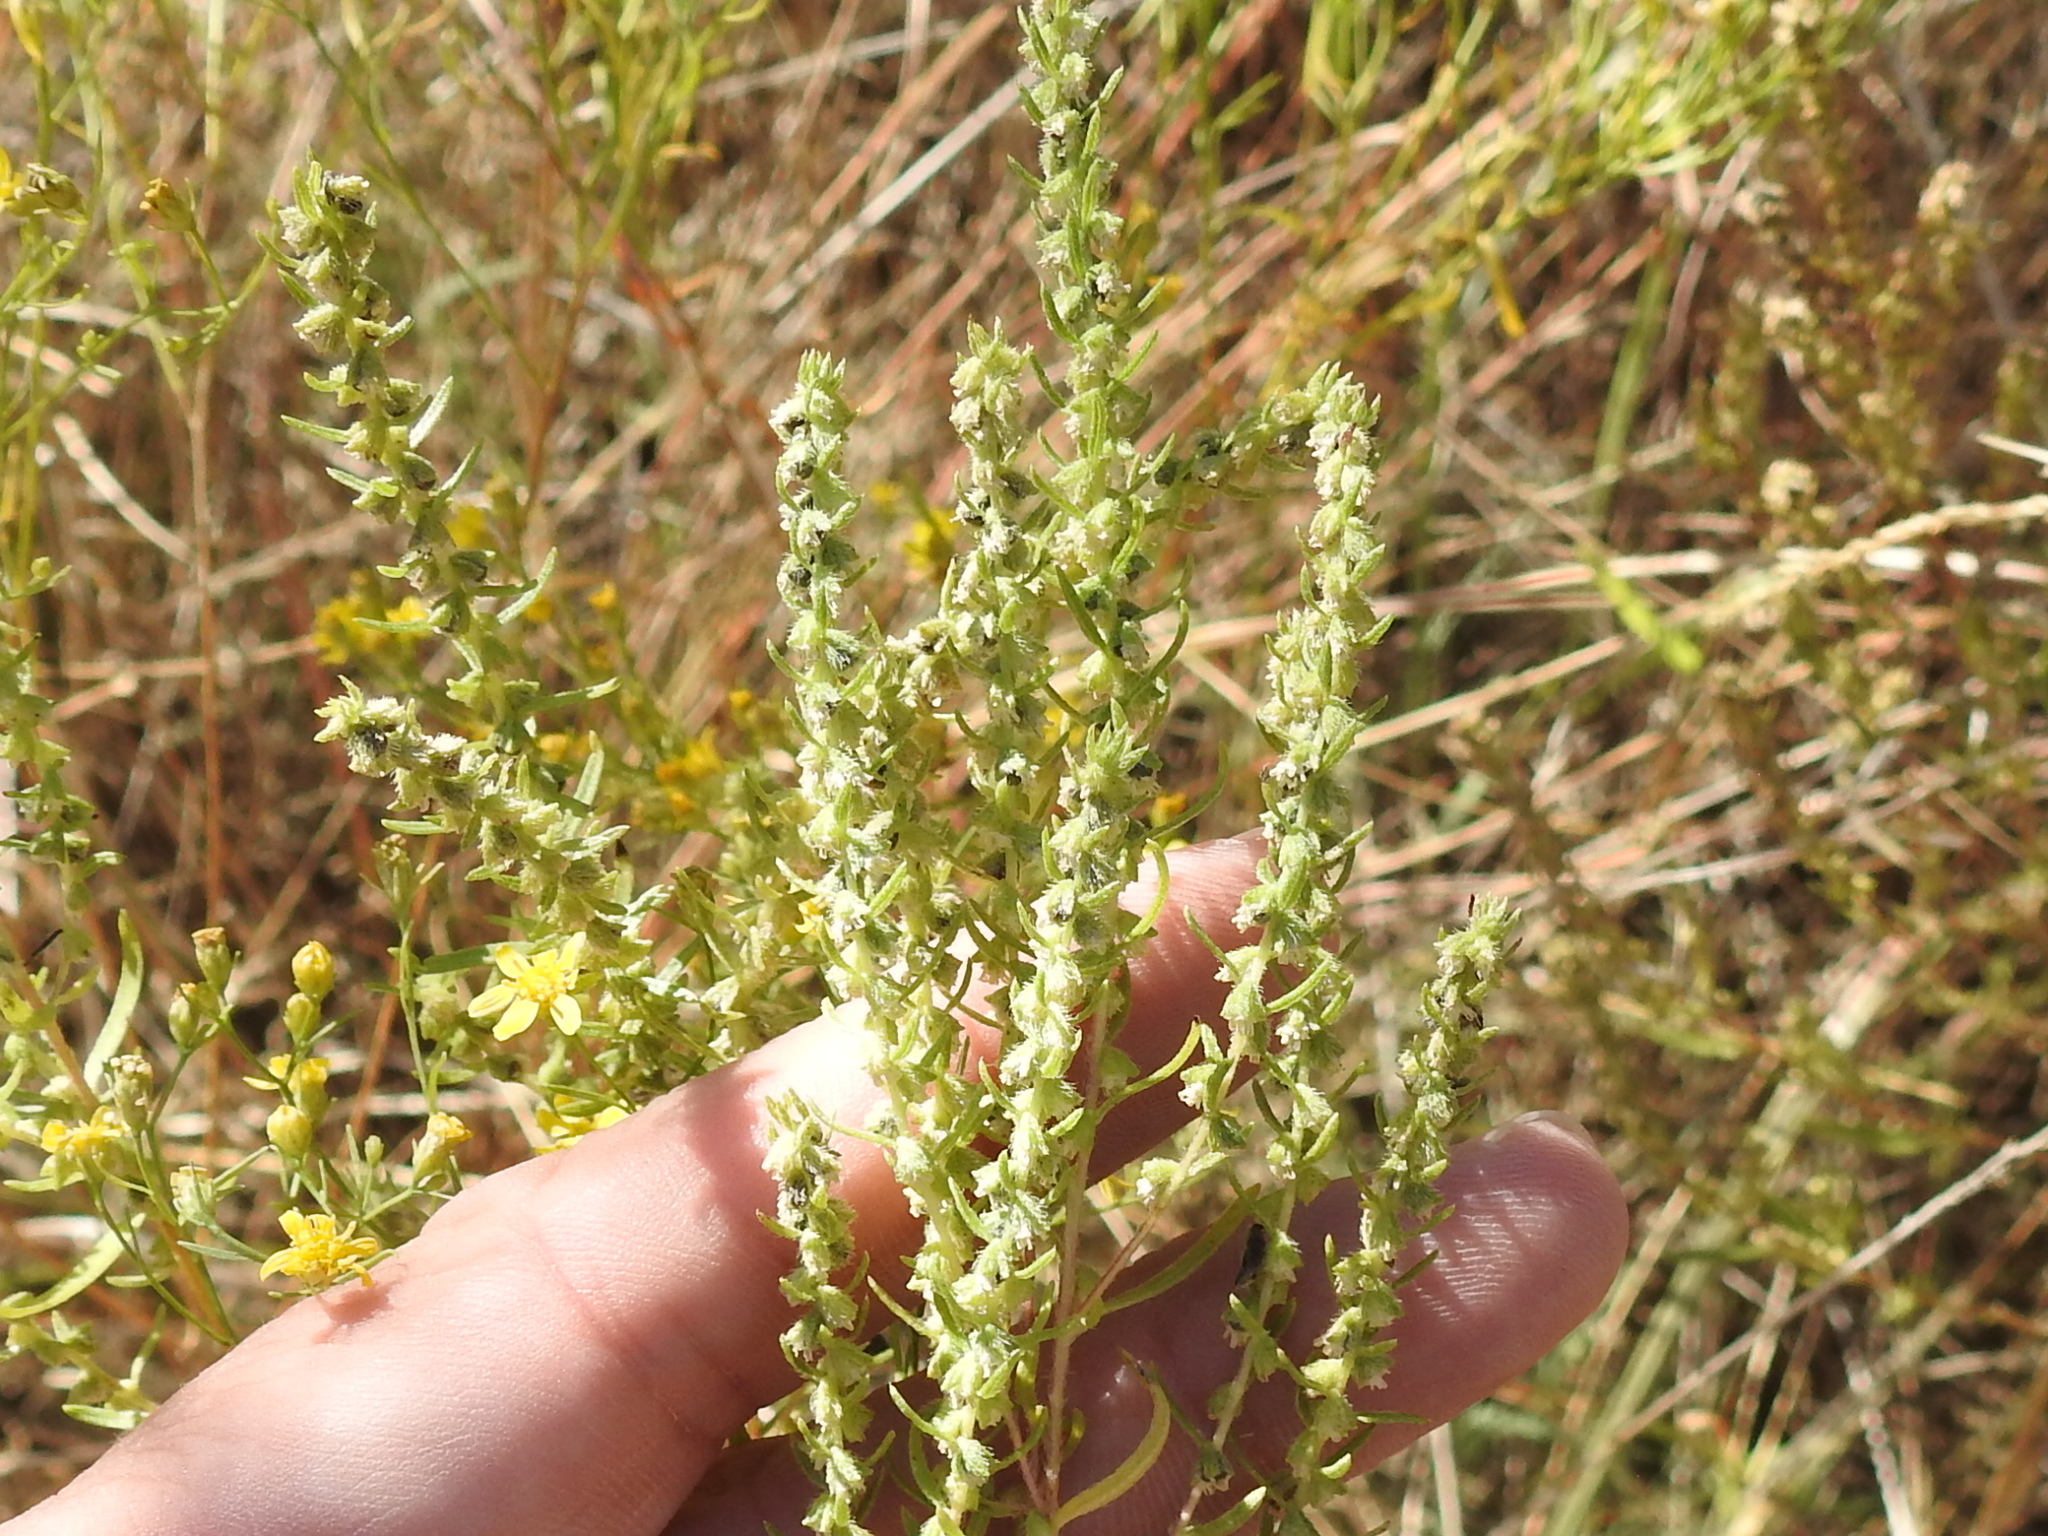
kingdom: Plantae
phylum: Tracheophyta
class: Magnoliopsida
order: Asterales
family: Asteraceae
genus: Iva
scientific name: Iva asperifolia
